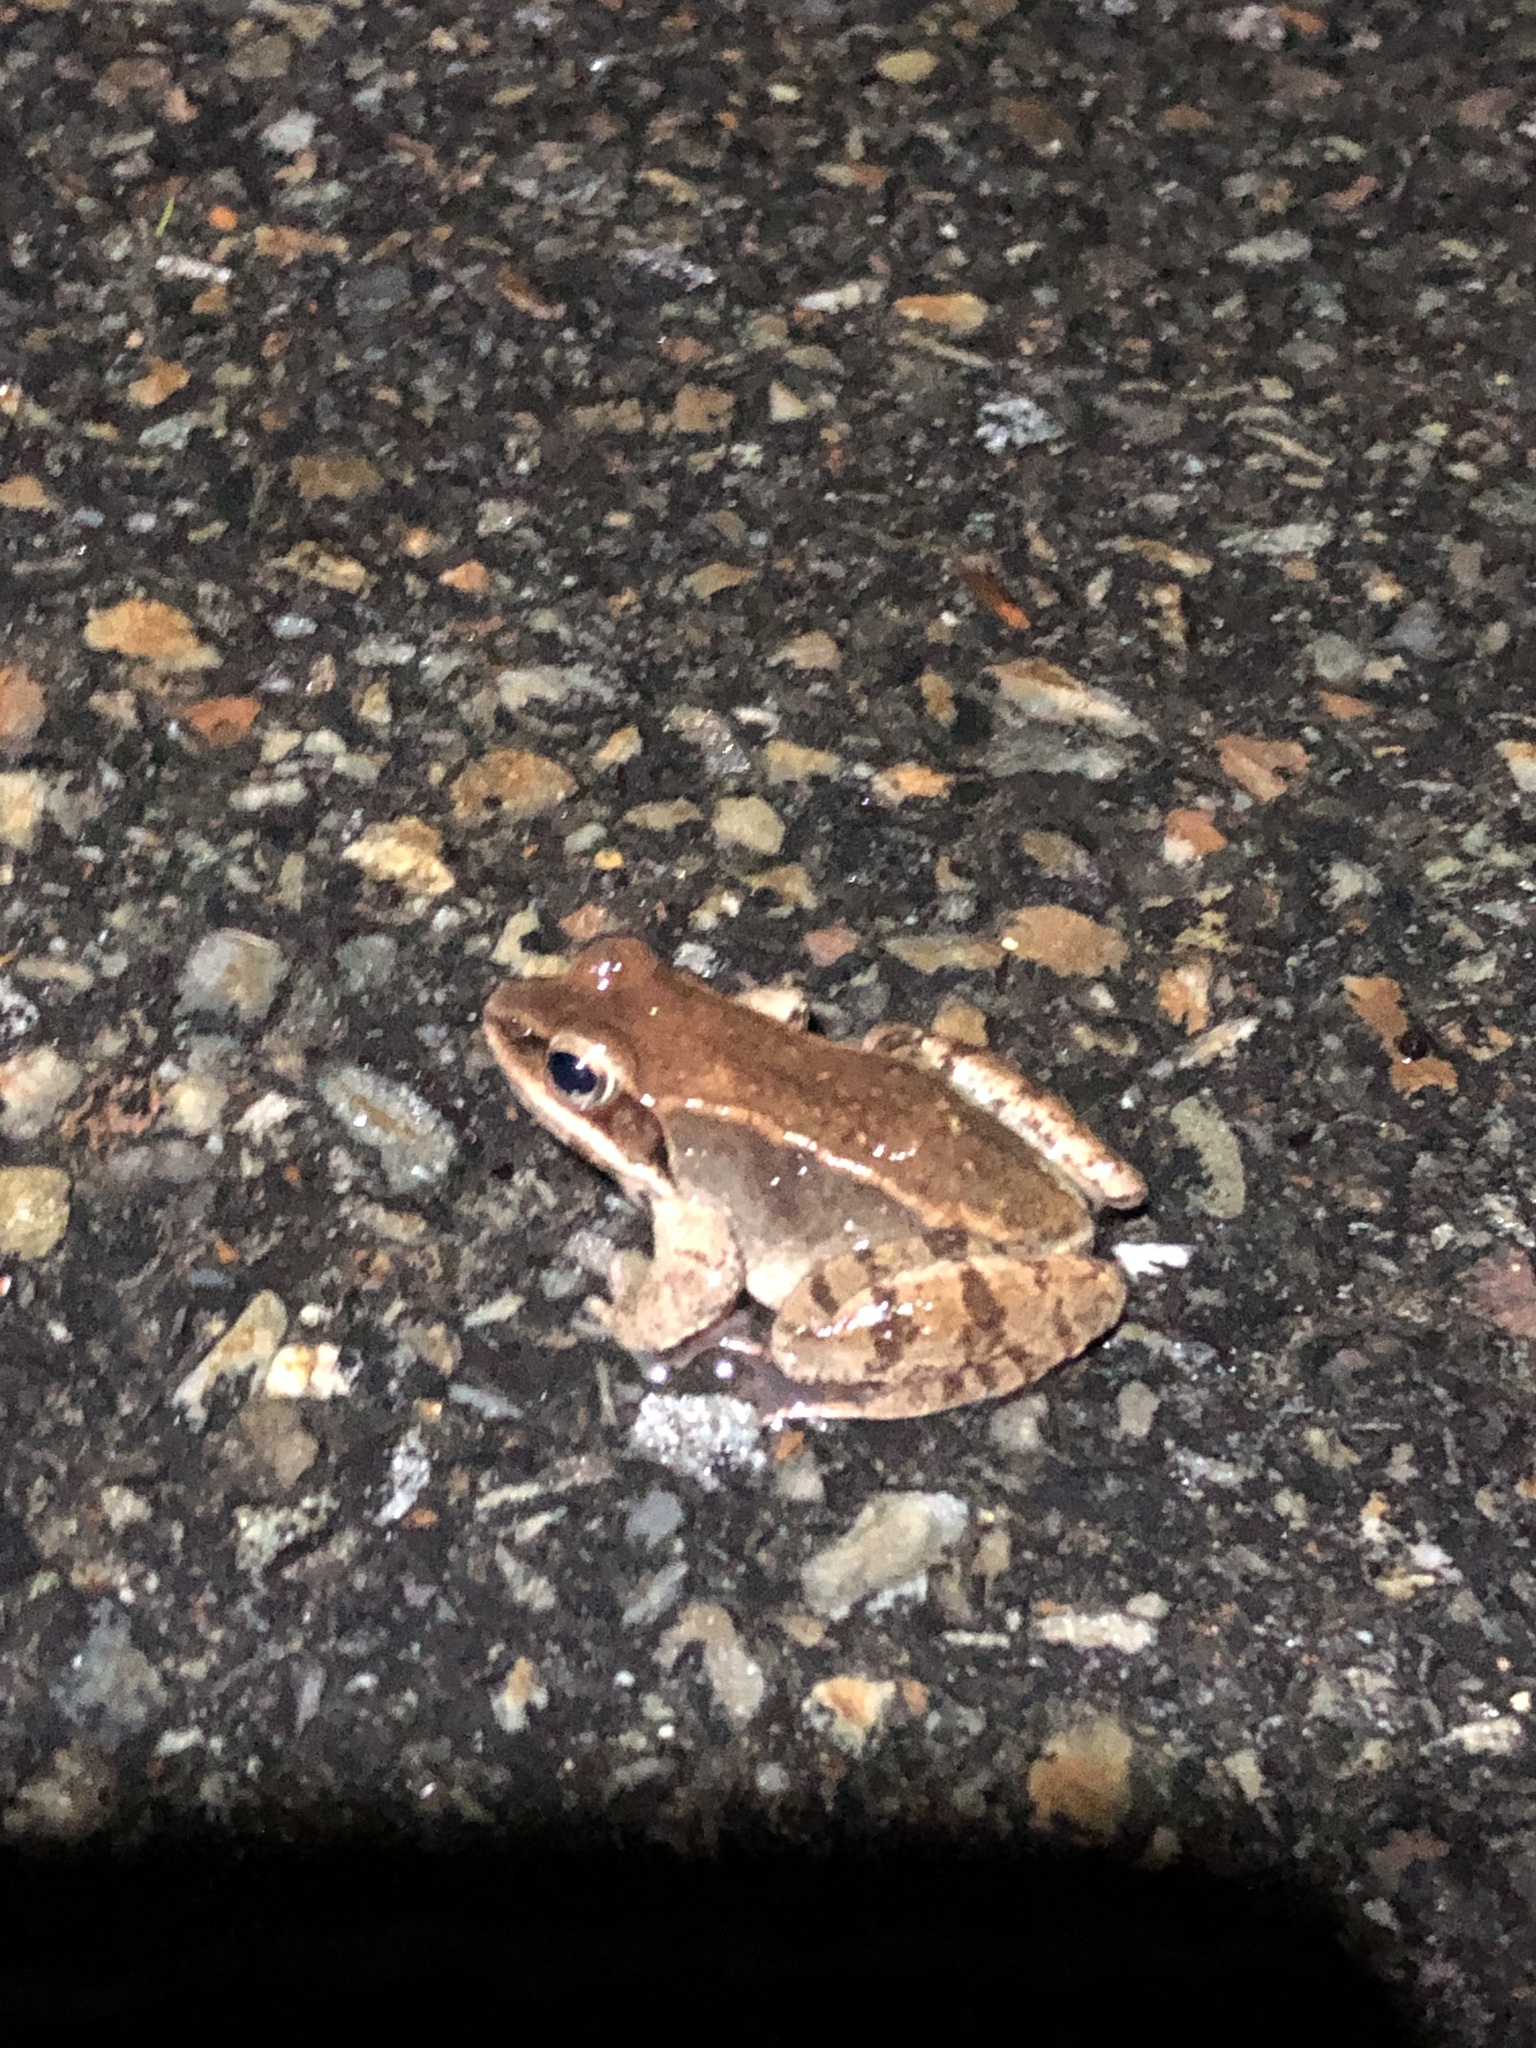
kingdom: Animalia
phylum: Chordata
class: Amphibia
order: Anura
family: Ranidae
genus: Lithobates
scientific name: Lithobates sylvaticus
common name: Wood frog
